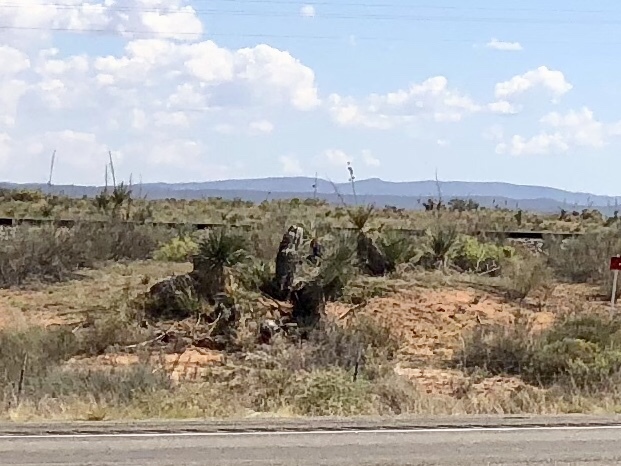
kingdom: Plantae
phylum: Tracheophyta
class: Liliopsida
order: Asparagales
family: Asparagaceae
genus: Yucca
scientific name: Yucca elata
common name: Palmella
